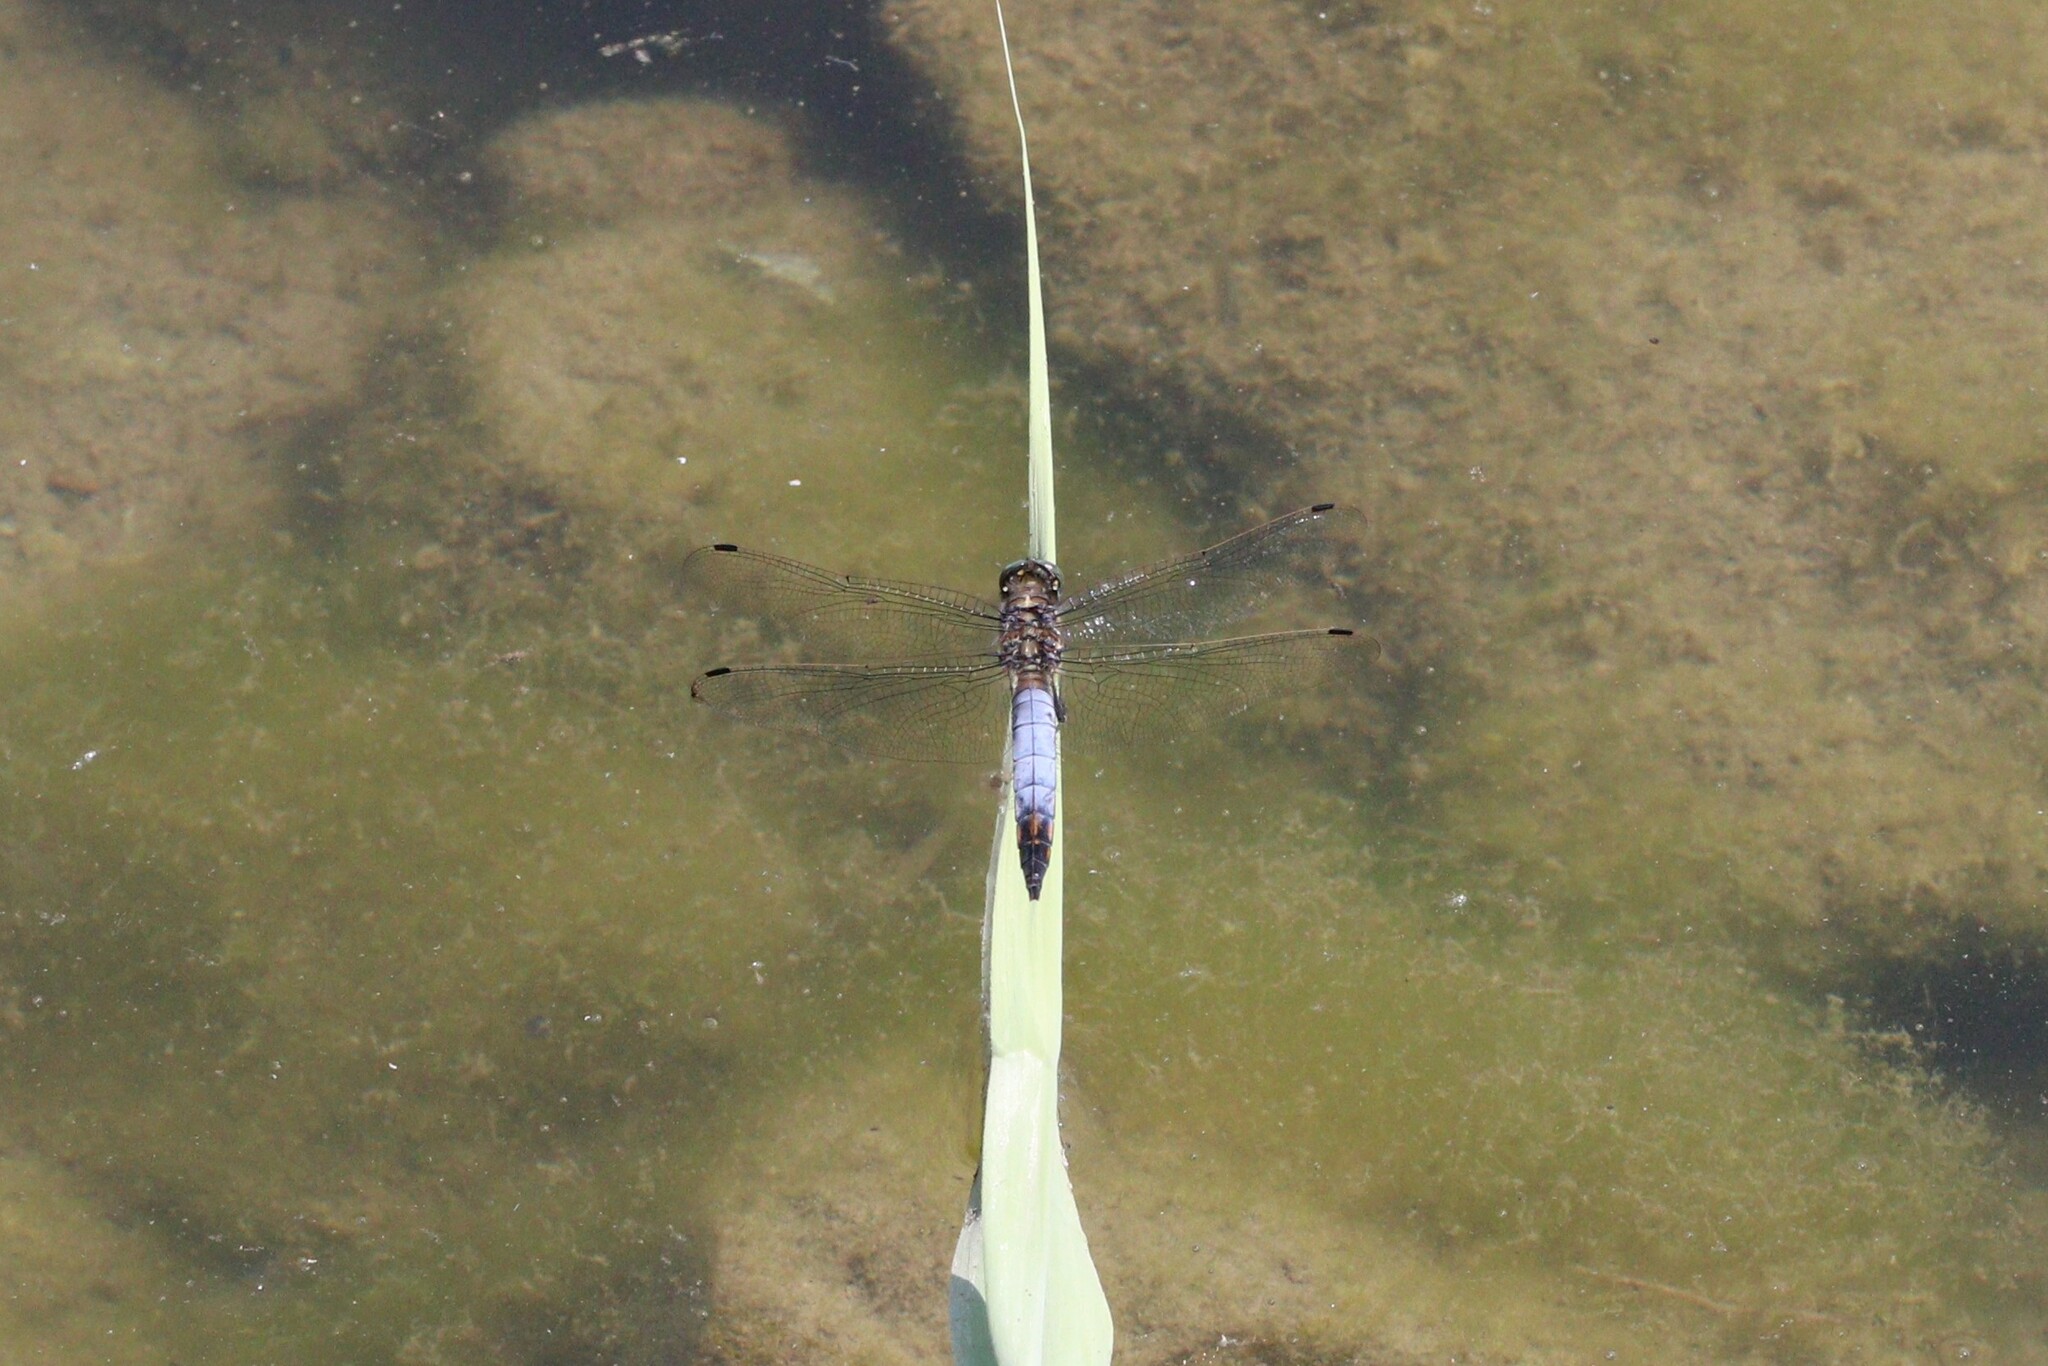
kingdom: Animalia
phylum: Arthropoda
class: Insecta
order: Odonata
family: Libellulidae
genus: Orthetrum
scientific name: Orthetrum cancellatum
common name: Black-tailed skimmer
